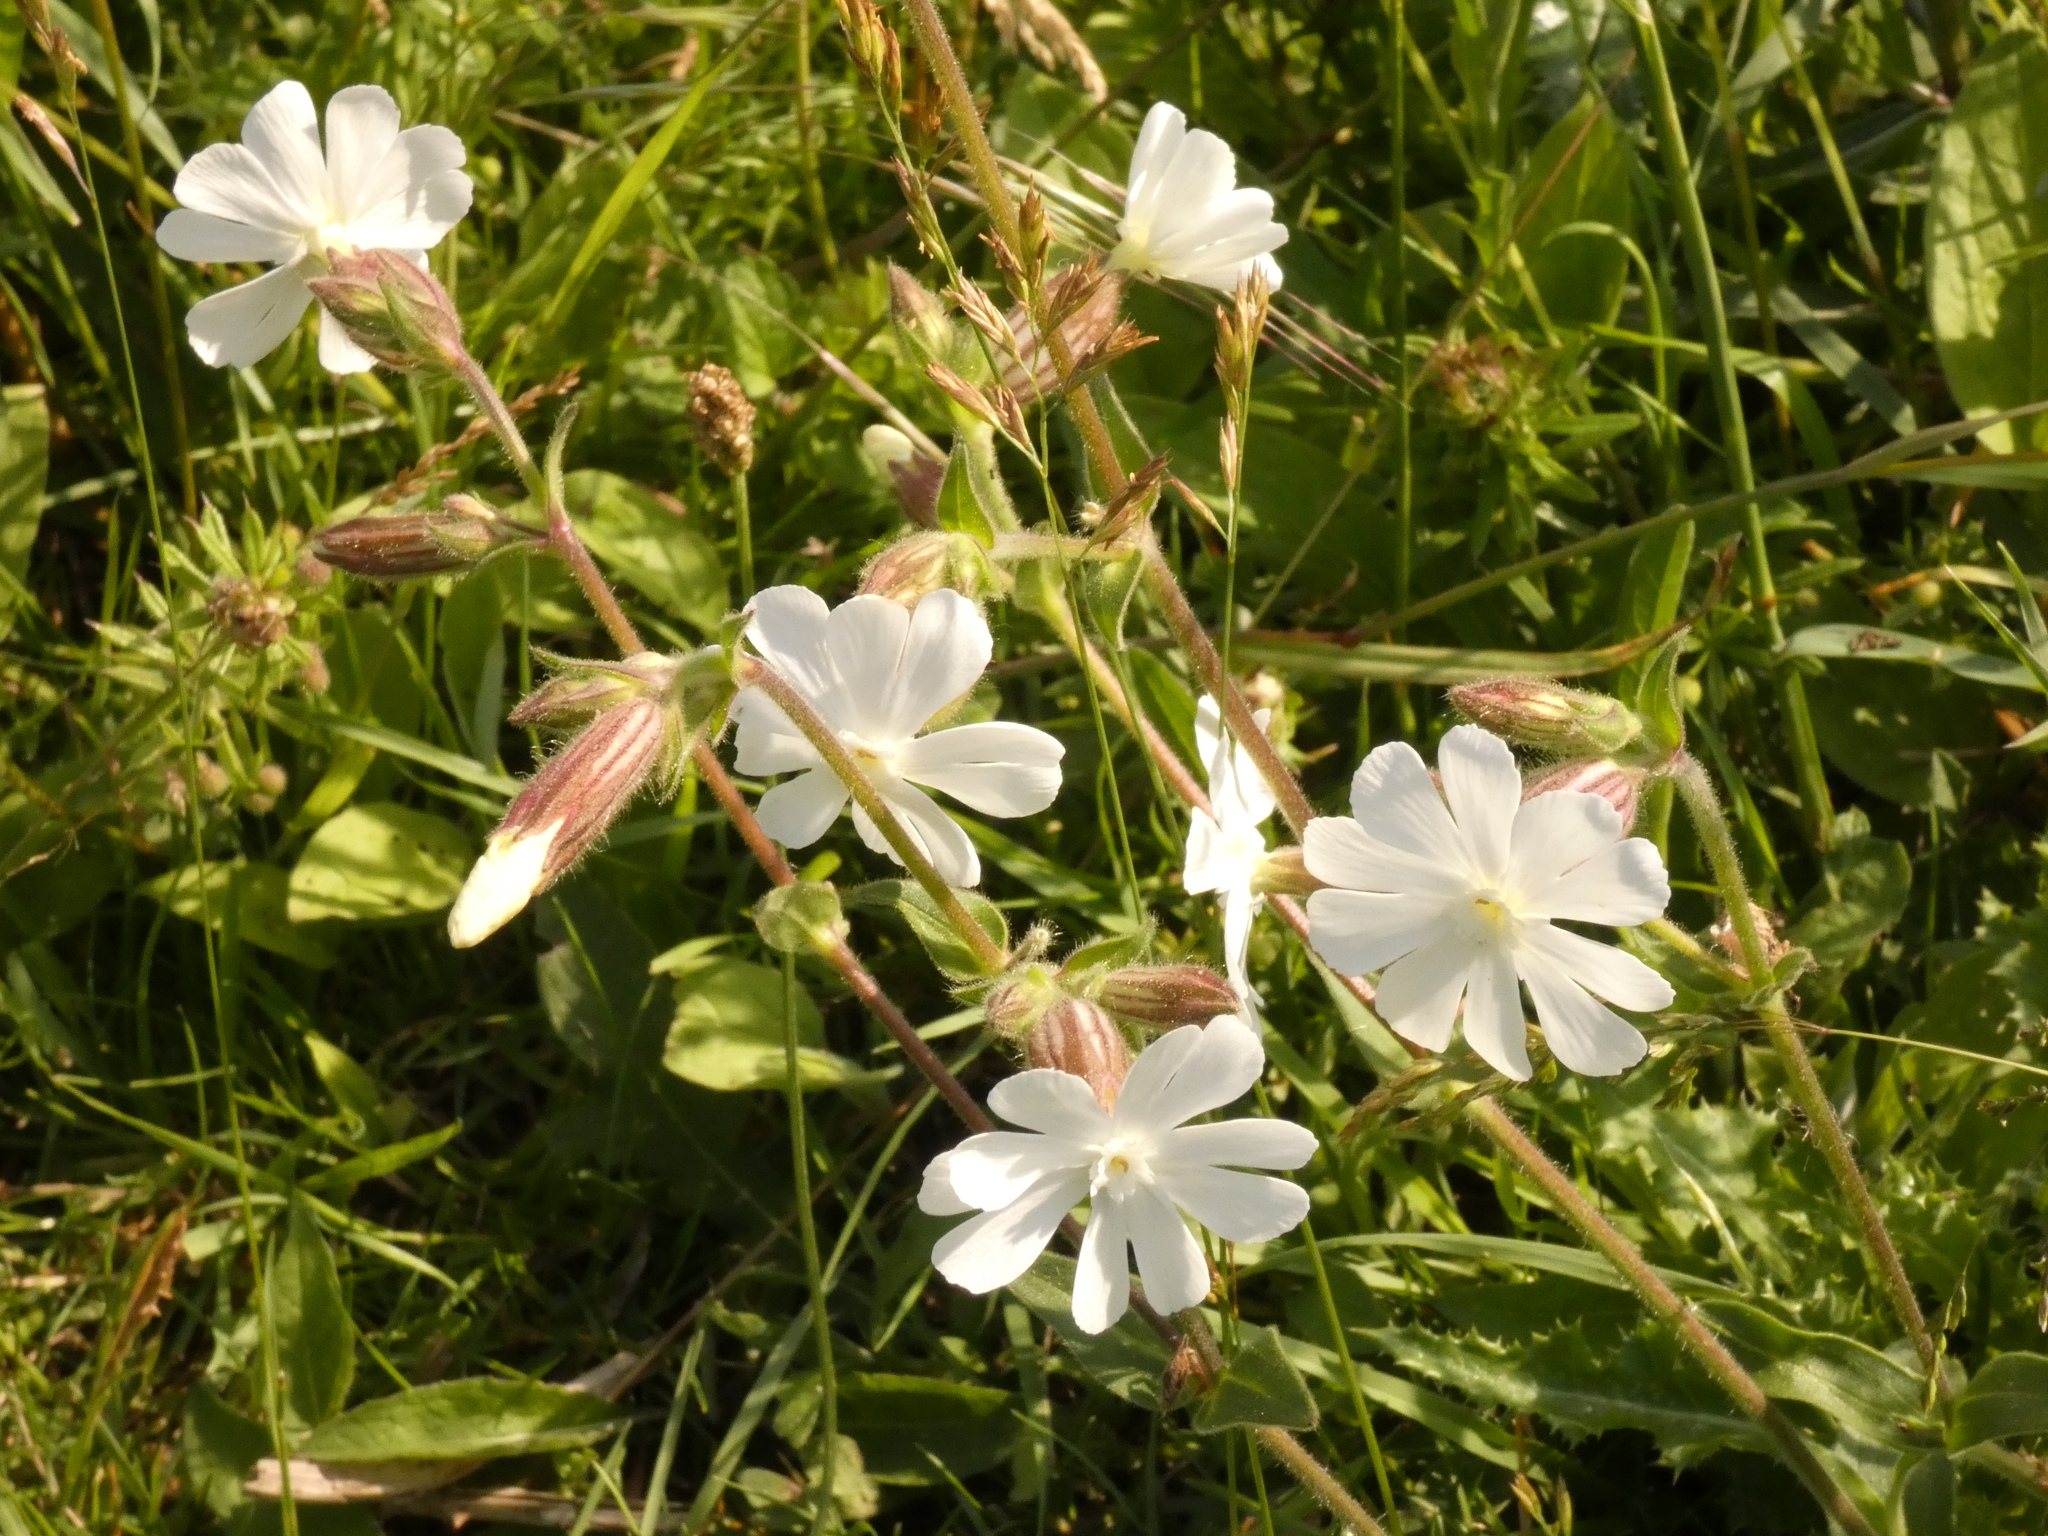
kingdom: Plantae
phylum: Tracheophyta
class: Magnoliopsida
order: Caryophyllales
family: Caryophyllaceae
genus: Silene
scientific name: Silene latifolia
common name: White campion
